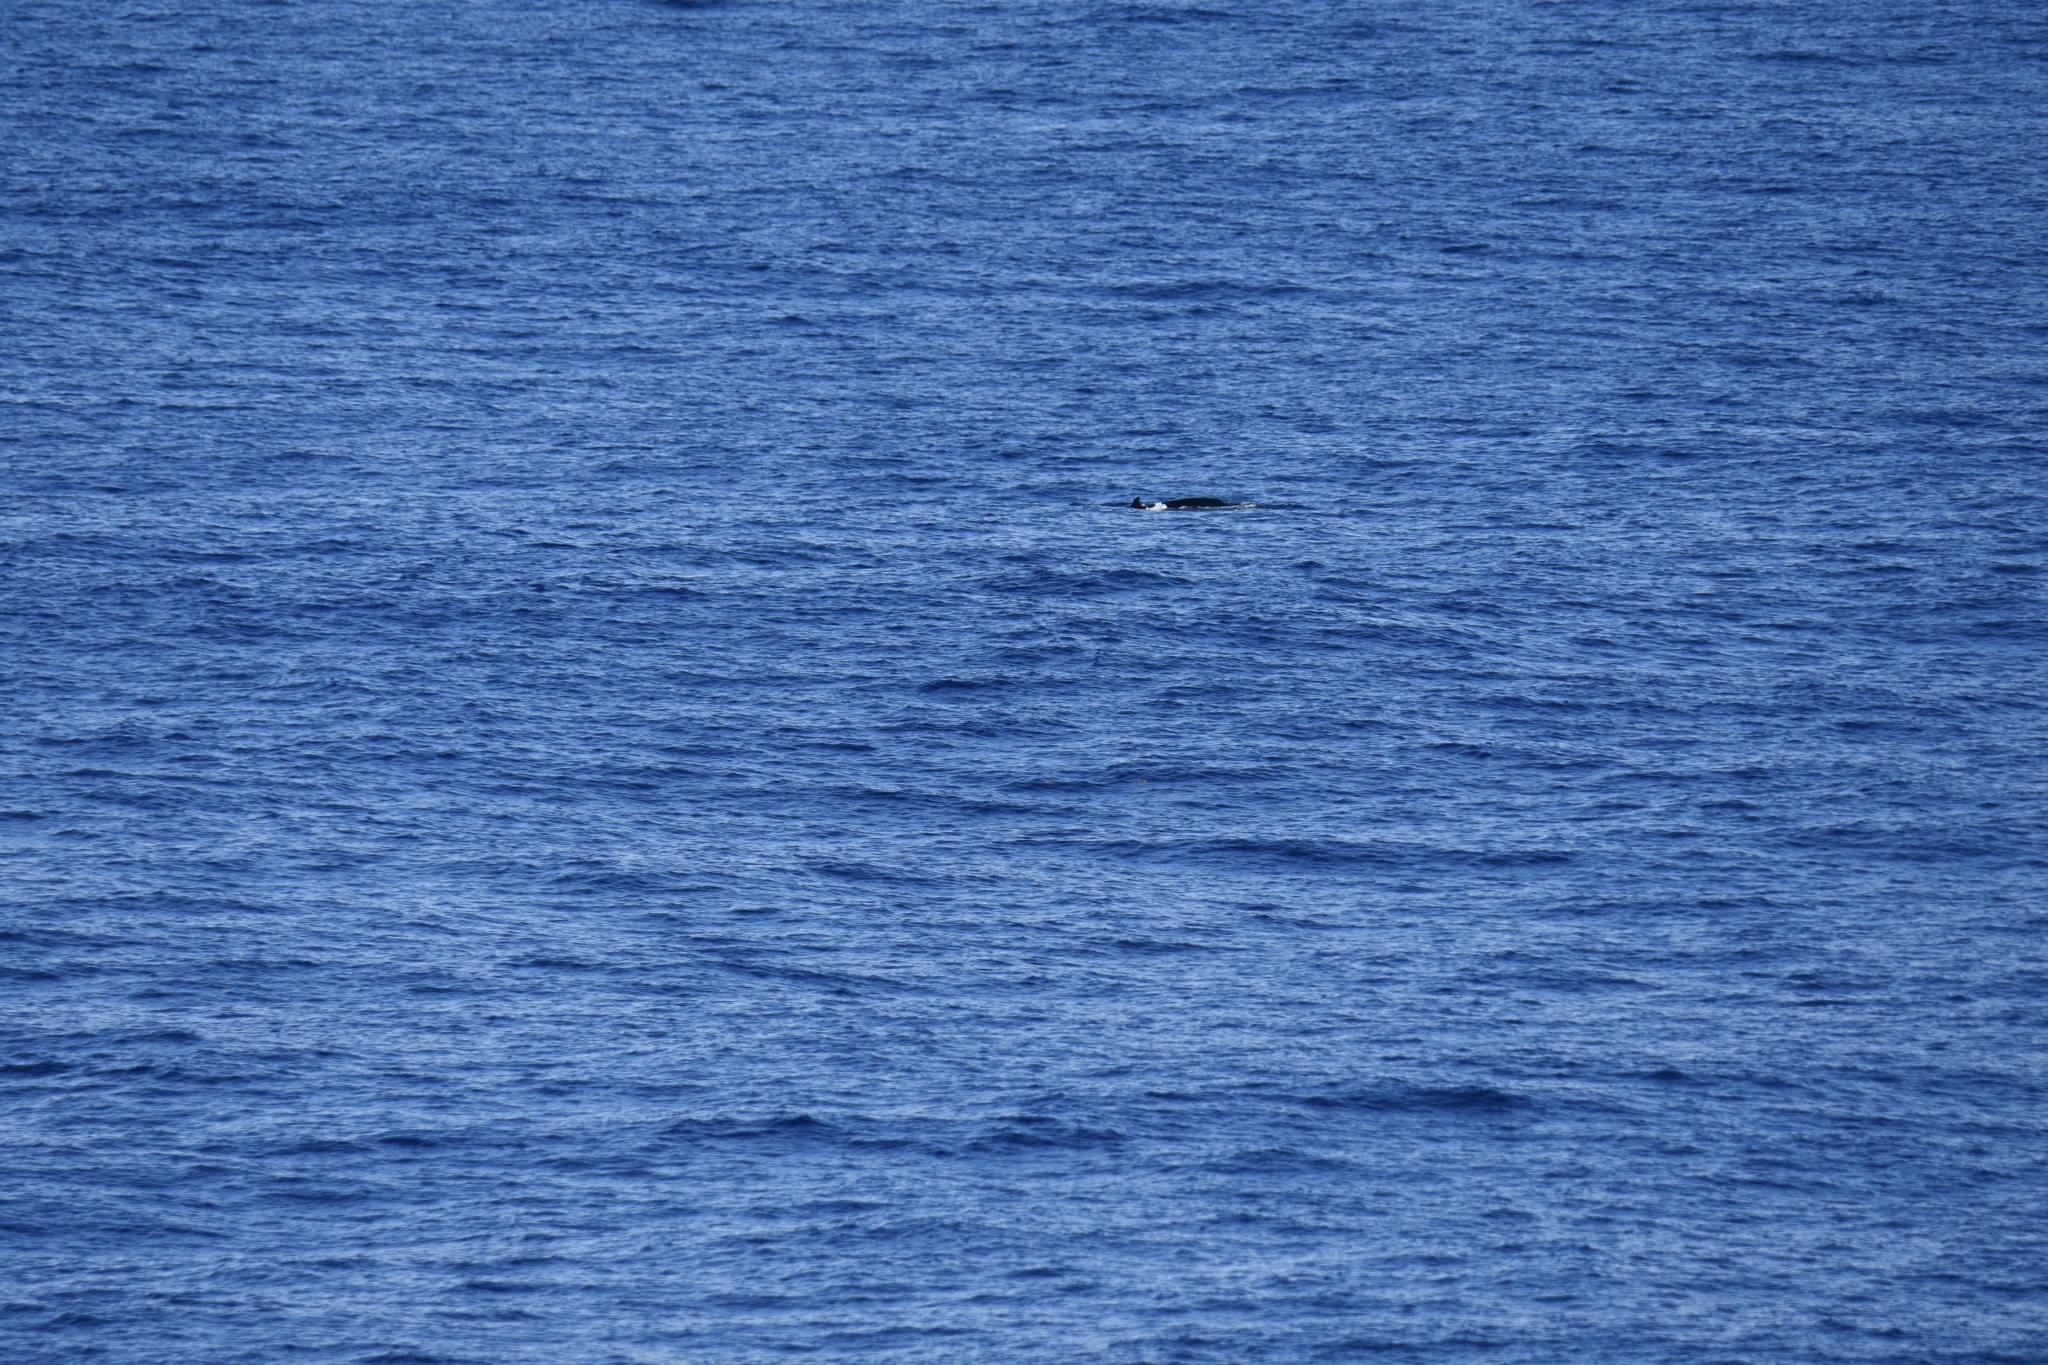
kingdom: Animalia
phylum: Chordata
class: Mammalia
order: Cetacea
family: Delphinidae
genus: Pseudorca
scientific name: Pseudorca crassidens
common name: False killer whale
